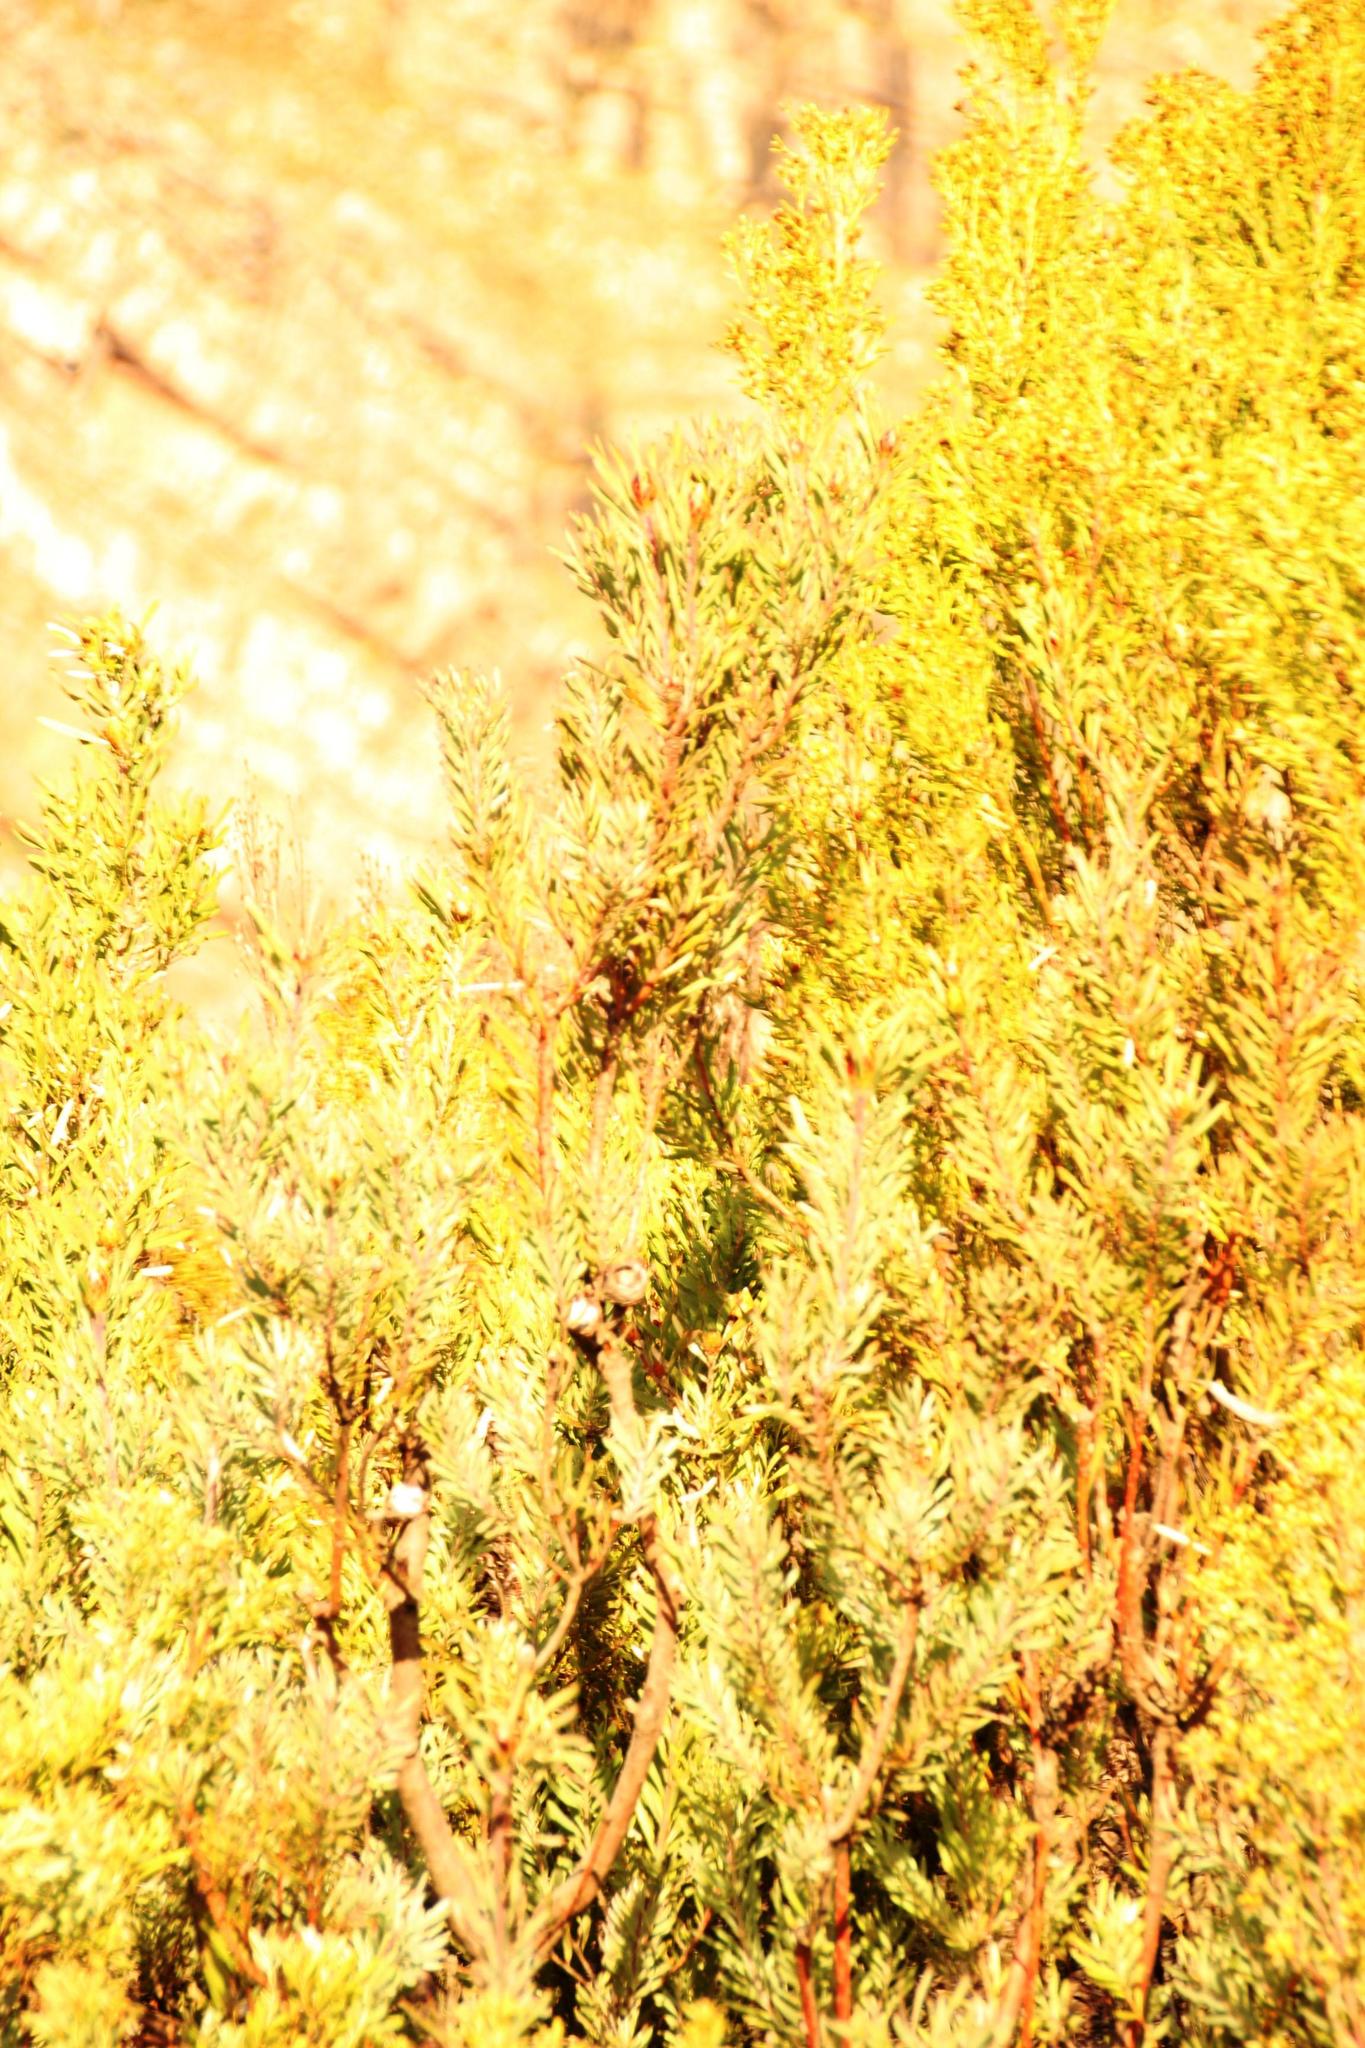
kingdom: Plantae
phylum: Tracheophyta
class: Magnoliopsida
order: Proteales
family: Proteaceae
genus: Leucadendron
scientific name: Leucadendron rubrum
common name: Spinning top
